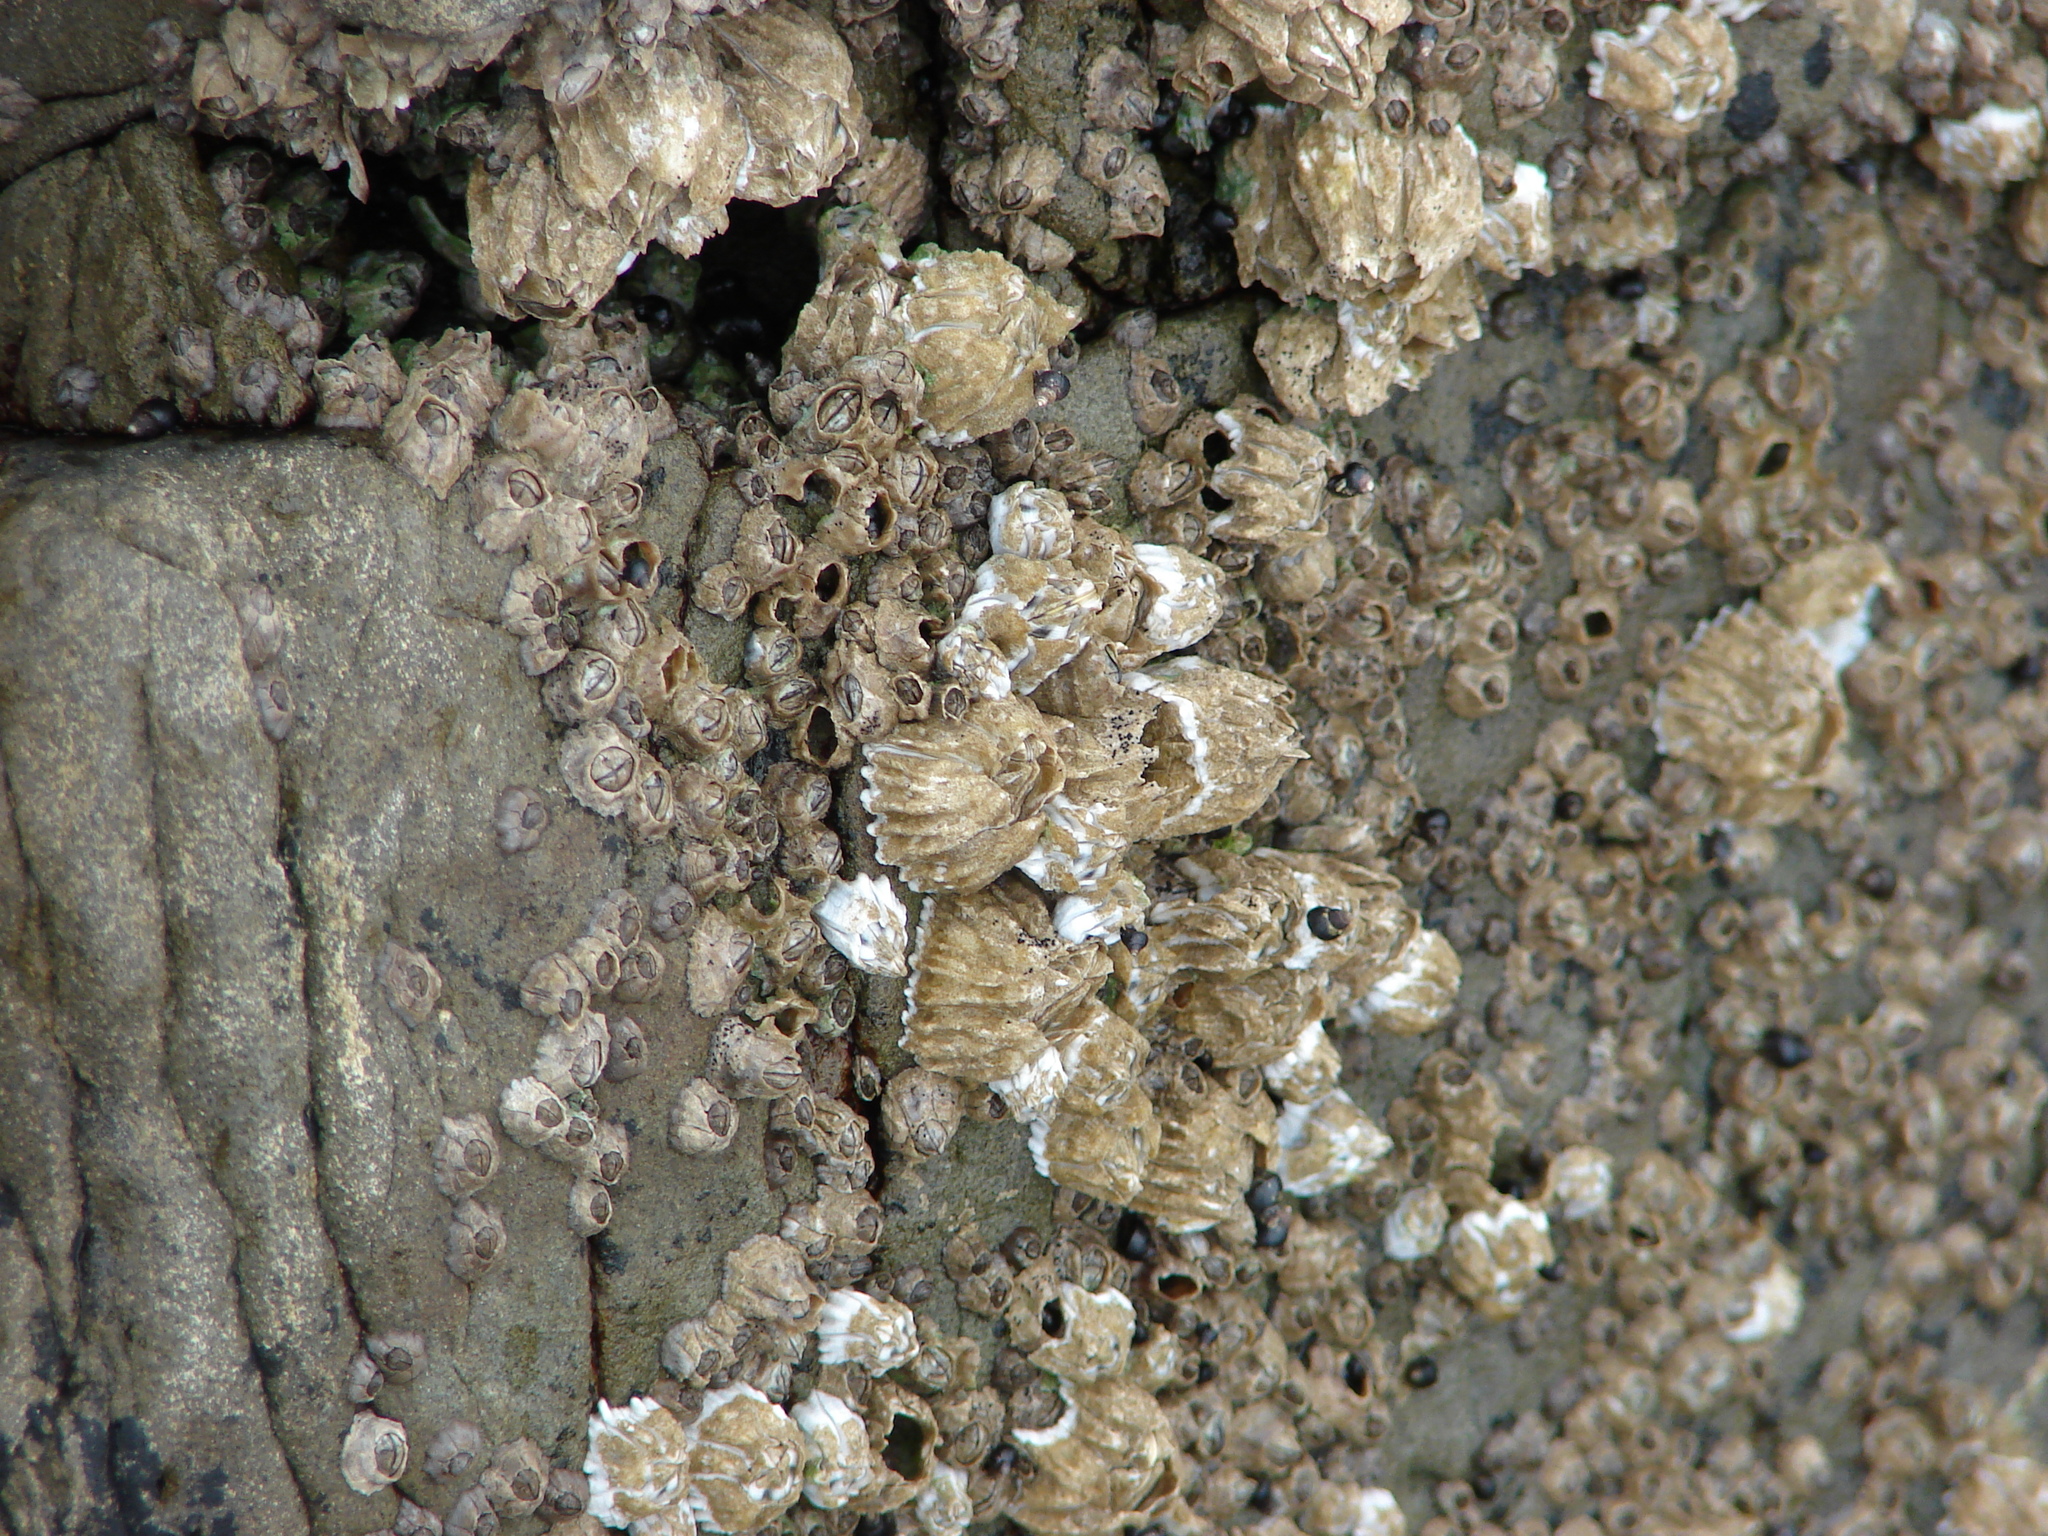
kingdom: Animalia
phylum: Arthropoda
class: Maxillopoda
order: Sessilia
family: Balanidae
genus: Balanus
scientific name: Balanus glandula
